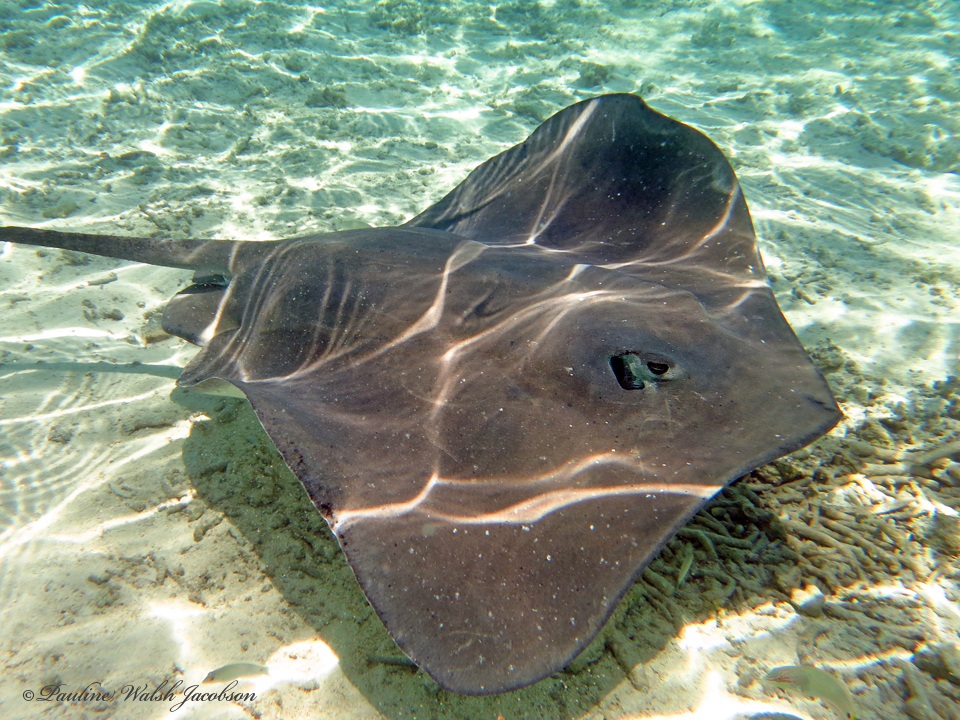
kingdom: Animalia
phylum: Chordata
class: Elasmobranchii
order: Myliobatiformes
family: Dasyatidae
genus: Pateobatis
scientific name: Pateobatis fai
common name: Pink whipray
